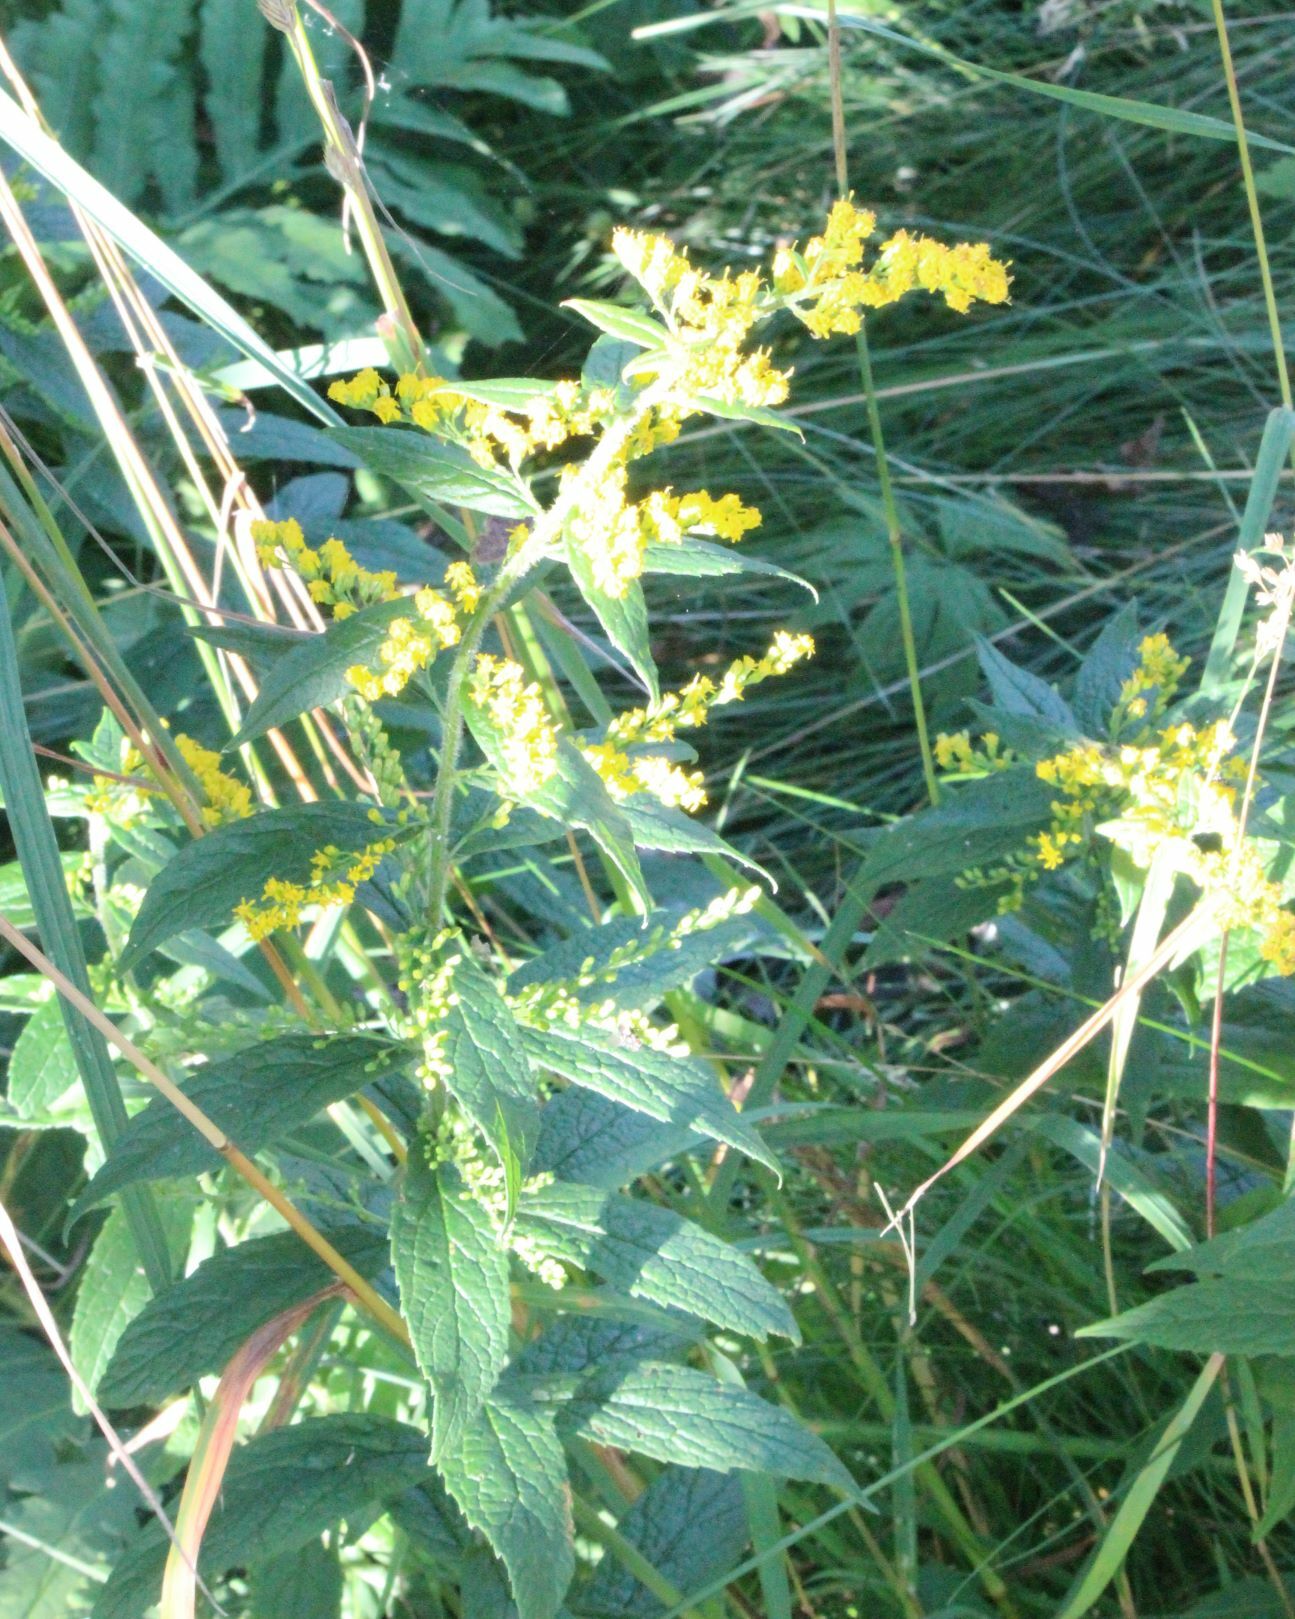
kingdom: Plantae
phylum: Tracheophyta
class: Magnoliopsida
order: Asterales
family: Asteraceae
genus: Solidago
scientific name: Solidago rugosa
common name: Rough-stemmed goldenrod
